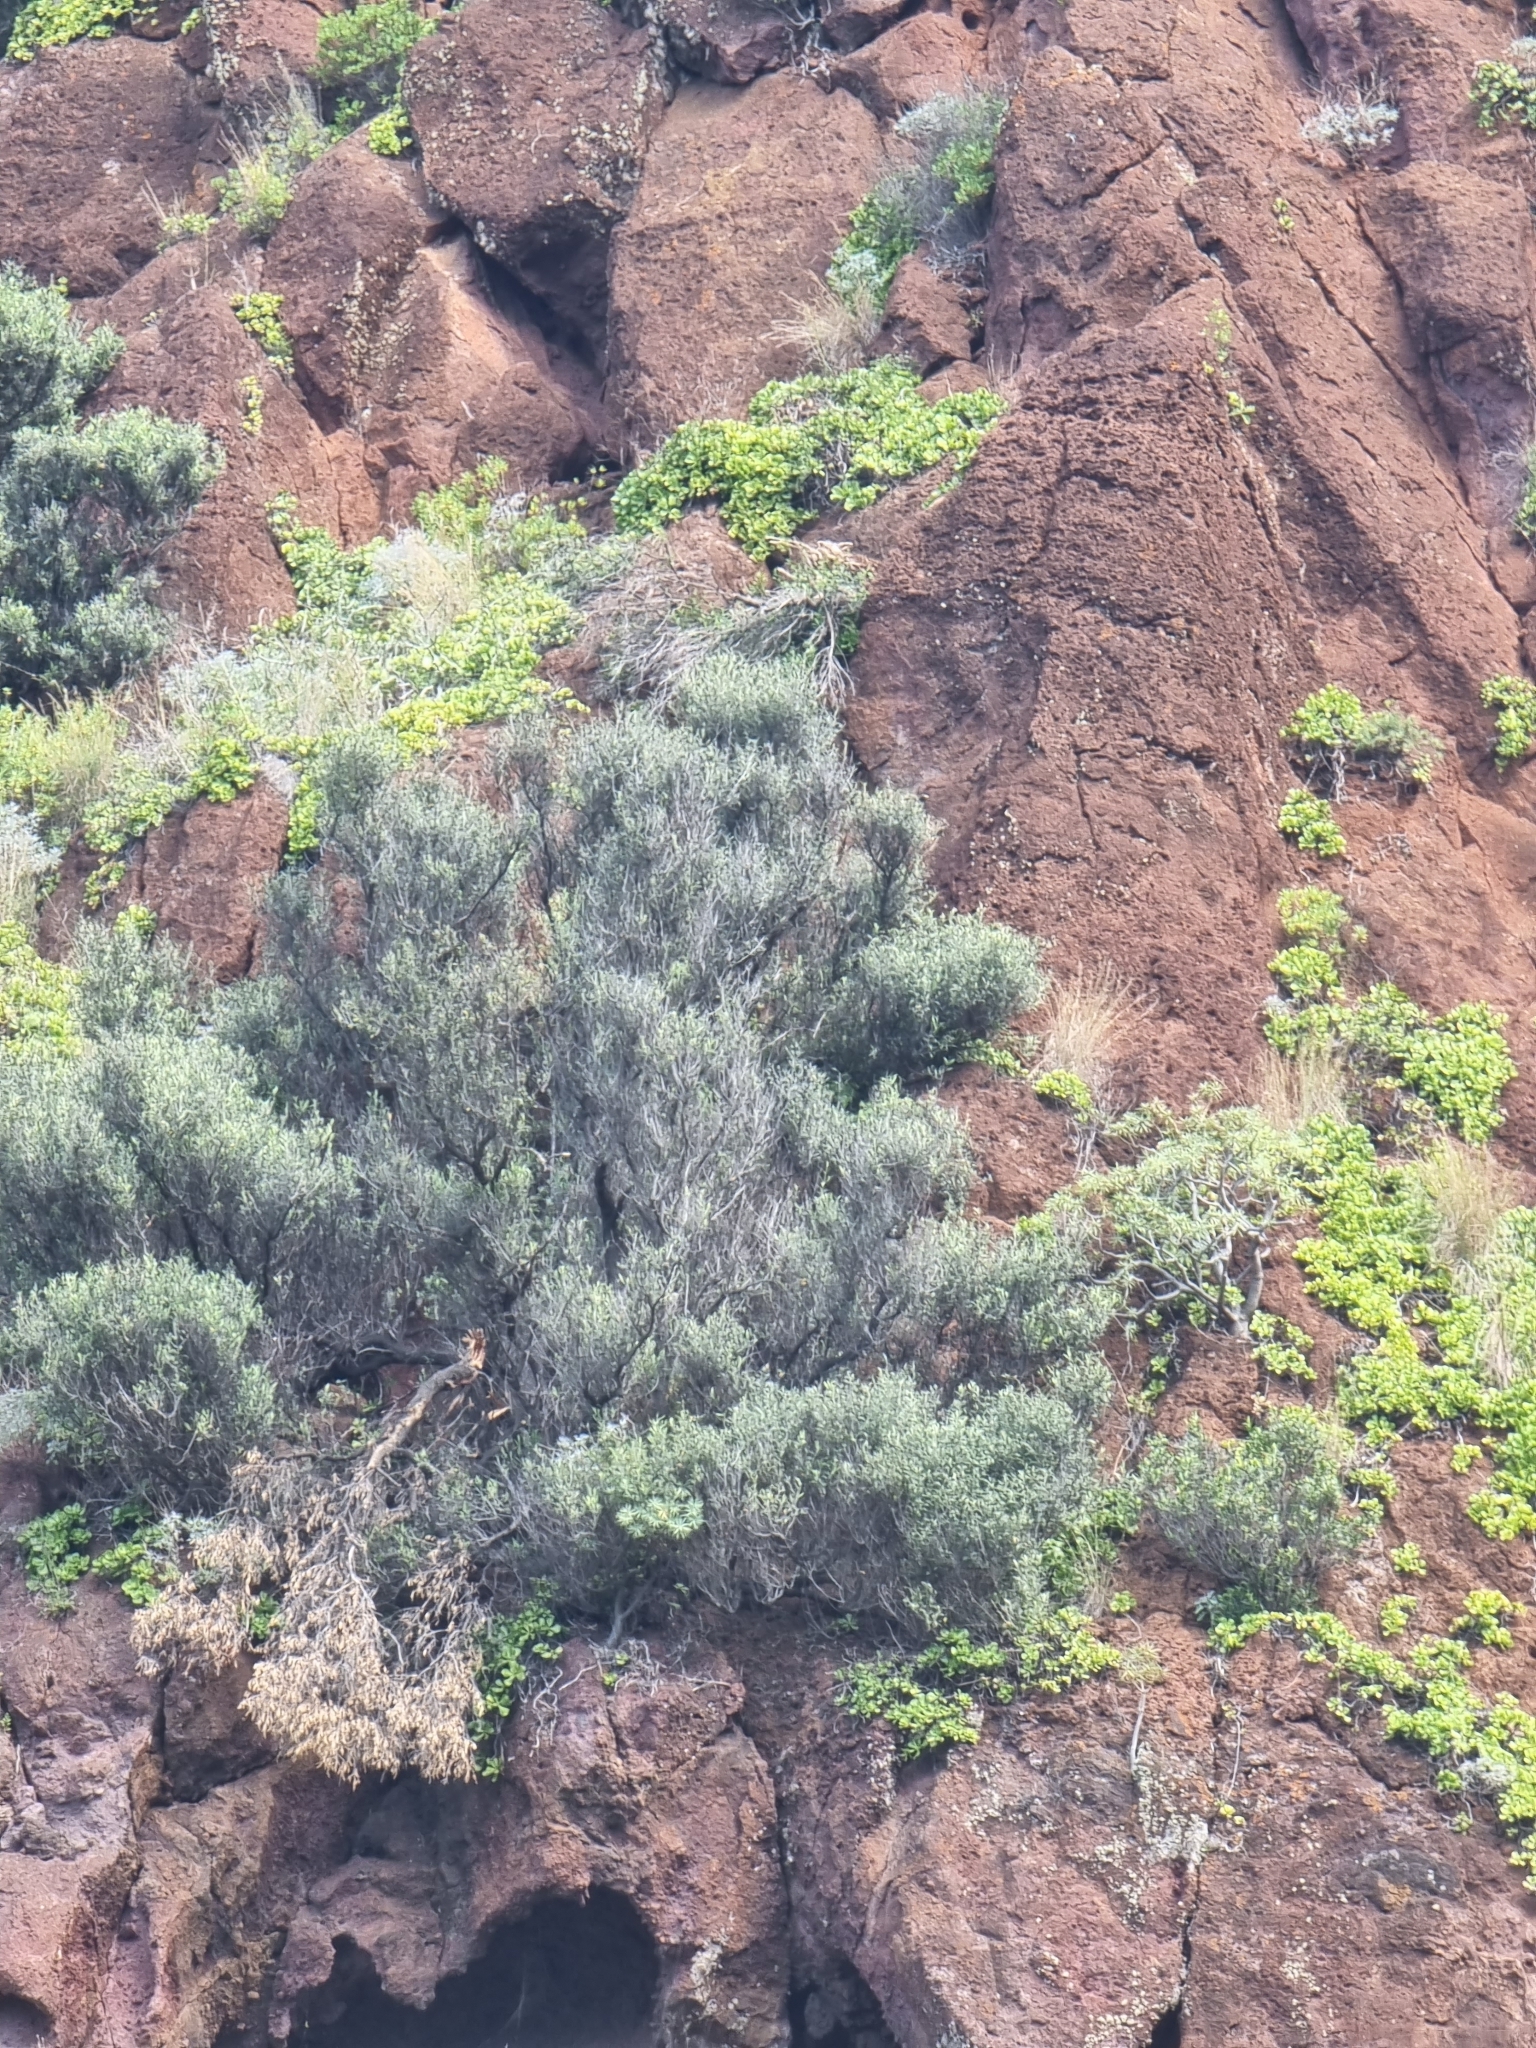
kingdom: Plantae
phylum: Tracheophyta
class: Magnoliopsida
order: Lamiales
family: Oleaceae
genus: Olea
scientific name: Olea europaea
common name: Olive
